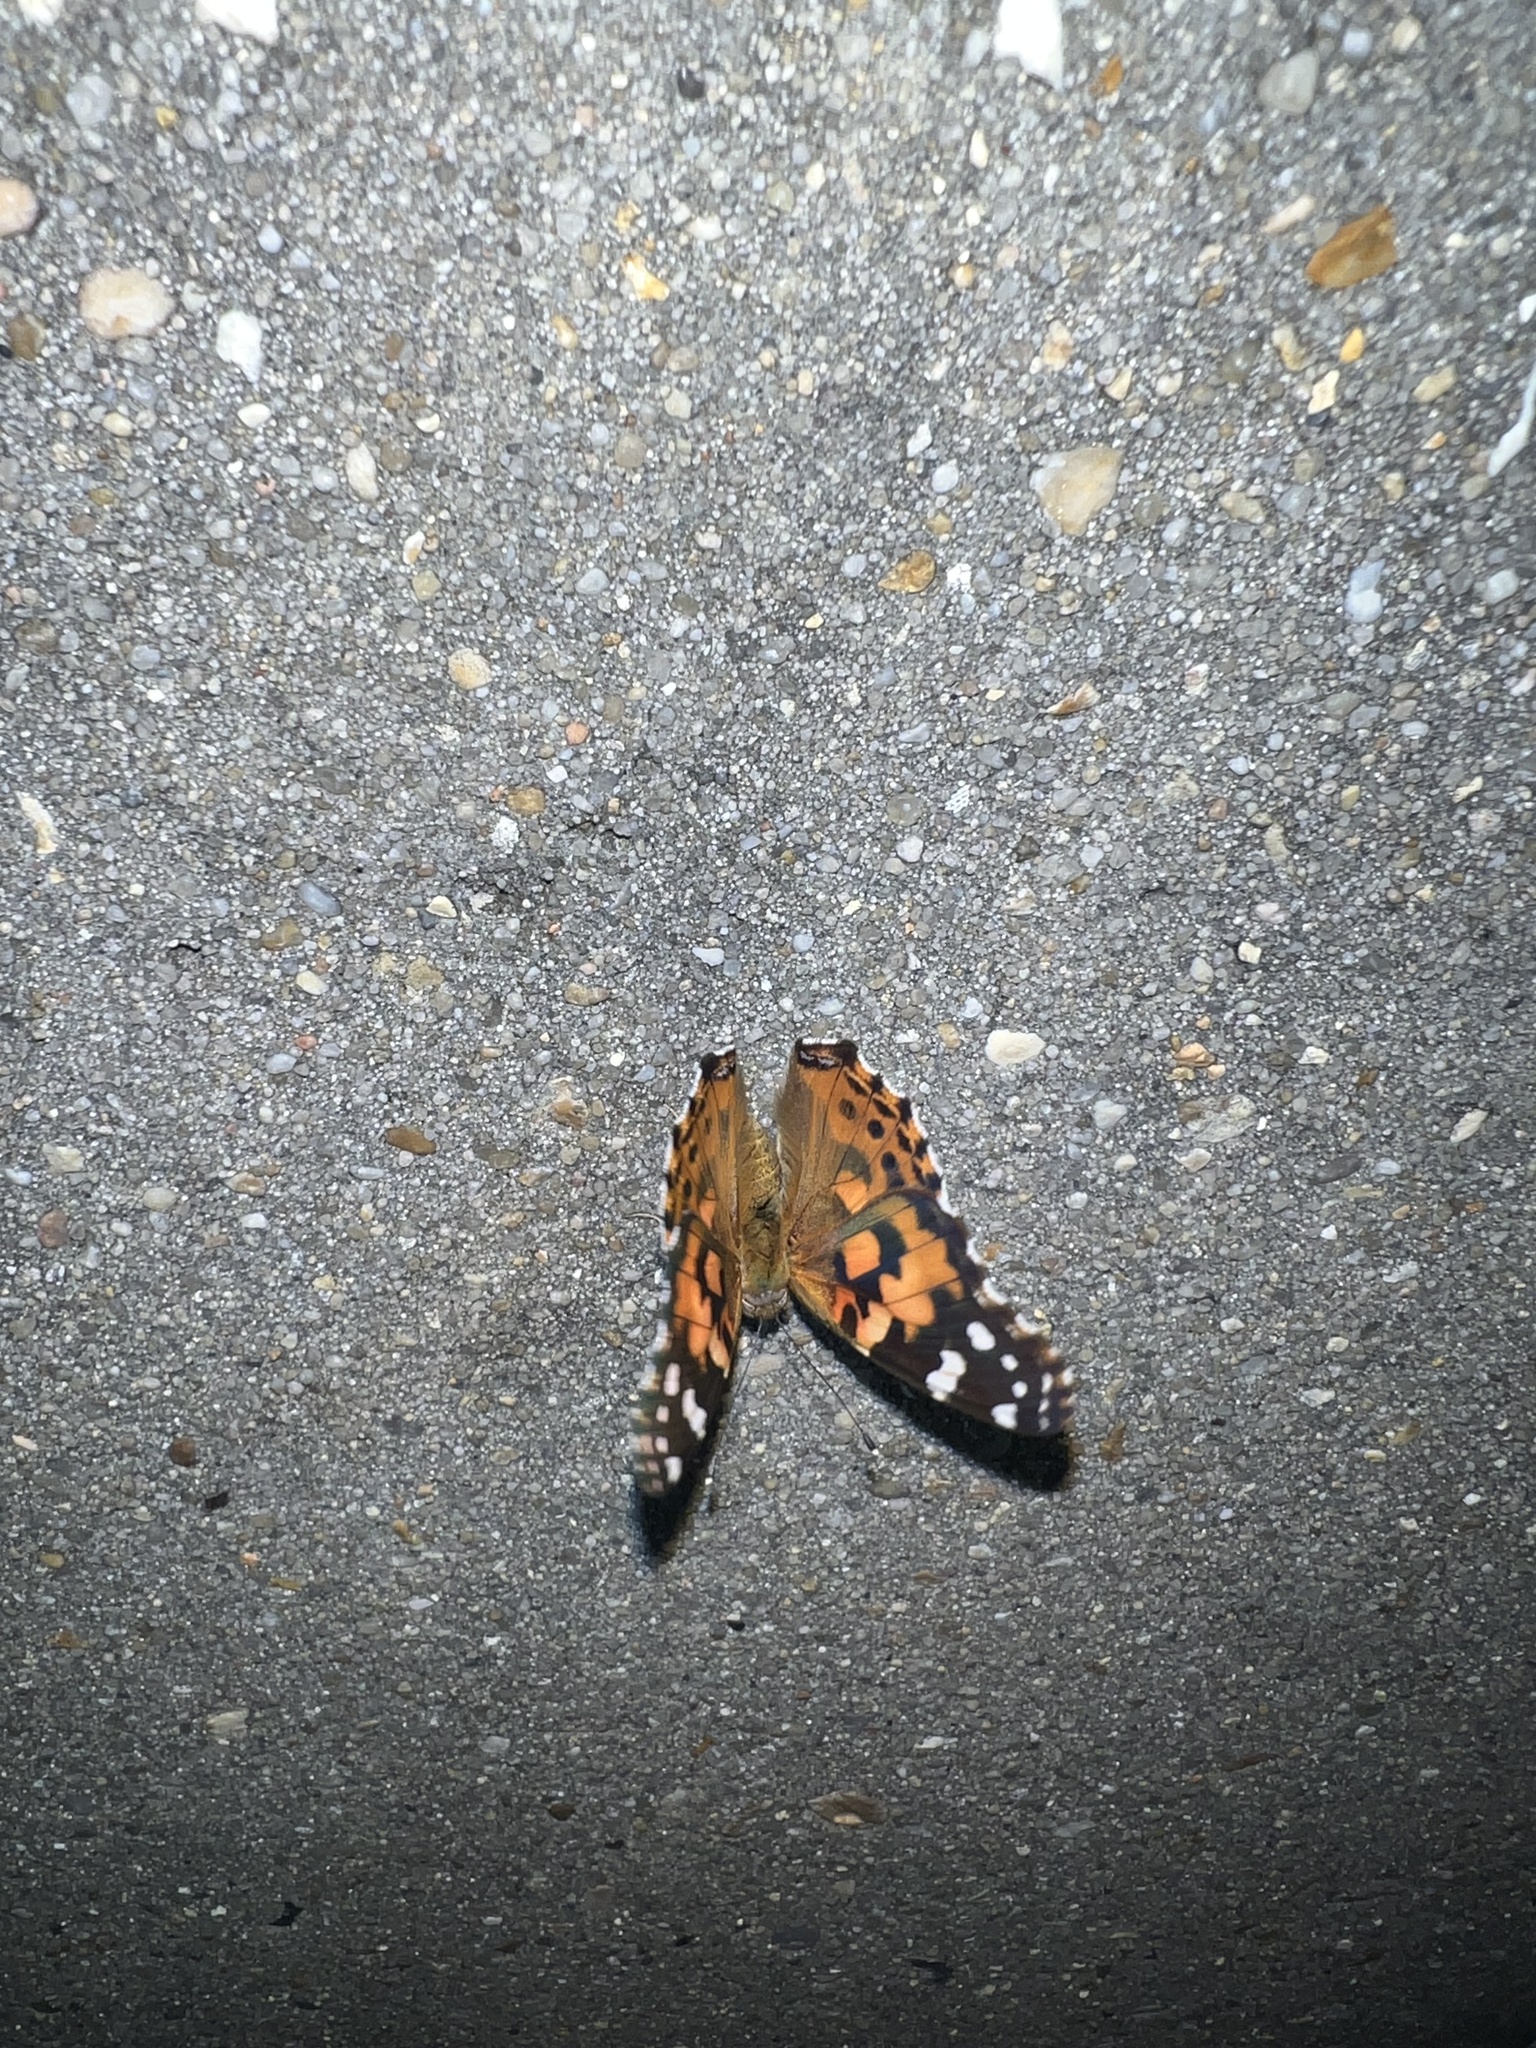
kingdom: Animalia
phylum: Arthropoda
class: Insecta
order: Lepidoptera
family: Nymphalidae
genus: Vanessa
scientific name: Vanessa cardui
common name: Painted lady
